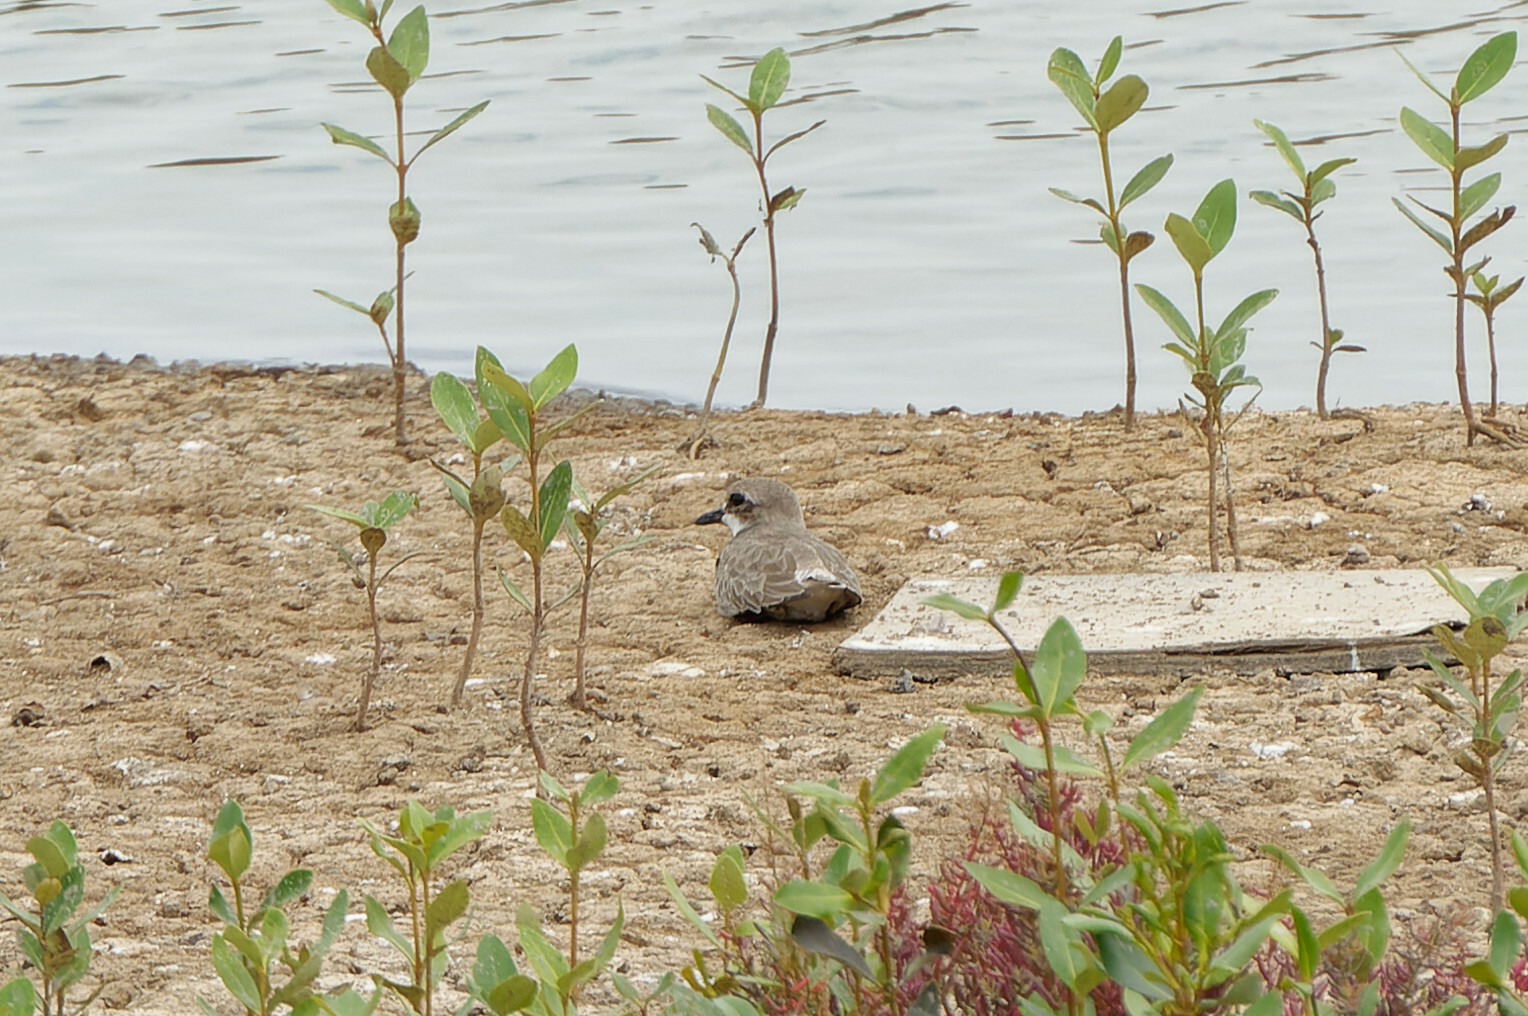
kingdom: Animalia
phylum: Chordata
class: Aves
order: Charadriiformes
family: Charadriidae
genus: Anarhynchus
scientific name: Anarhynchus
